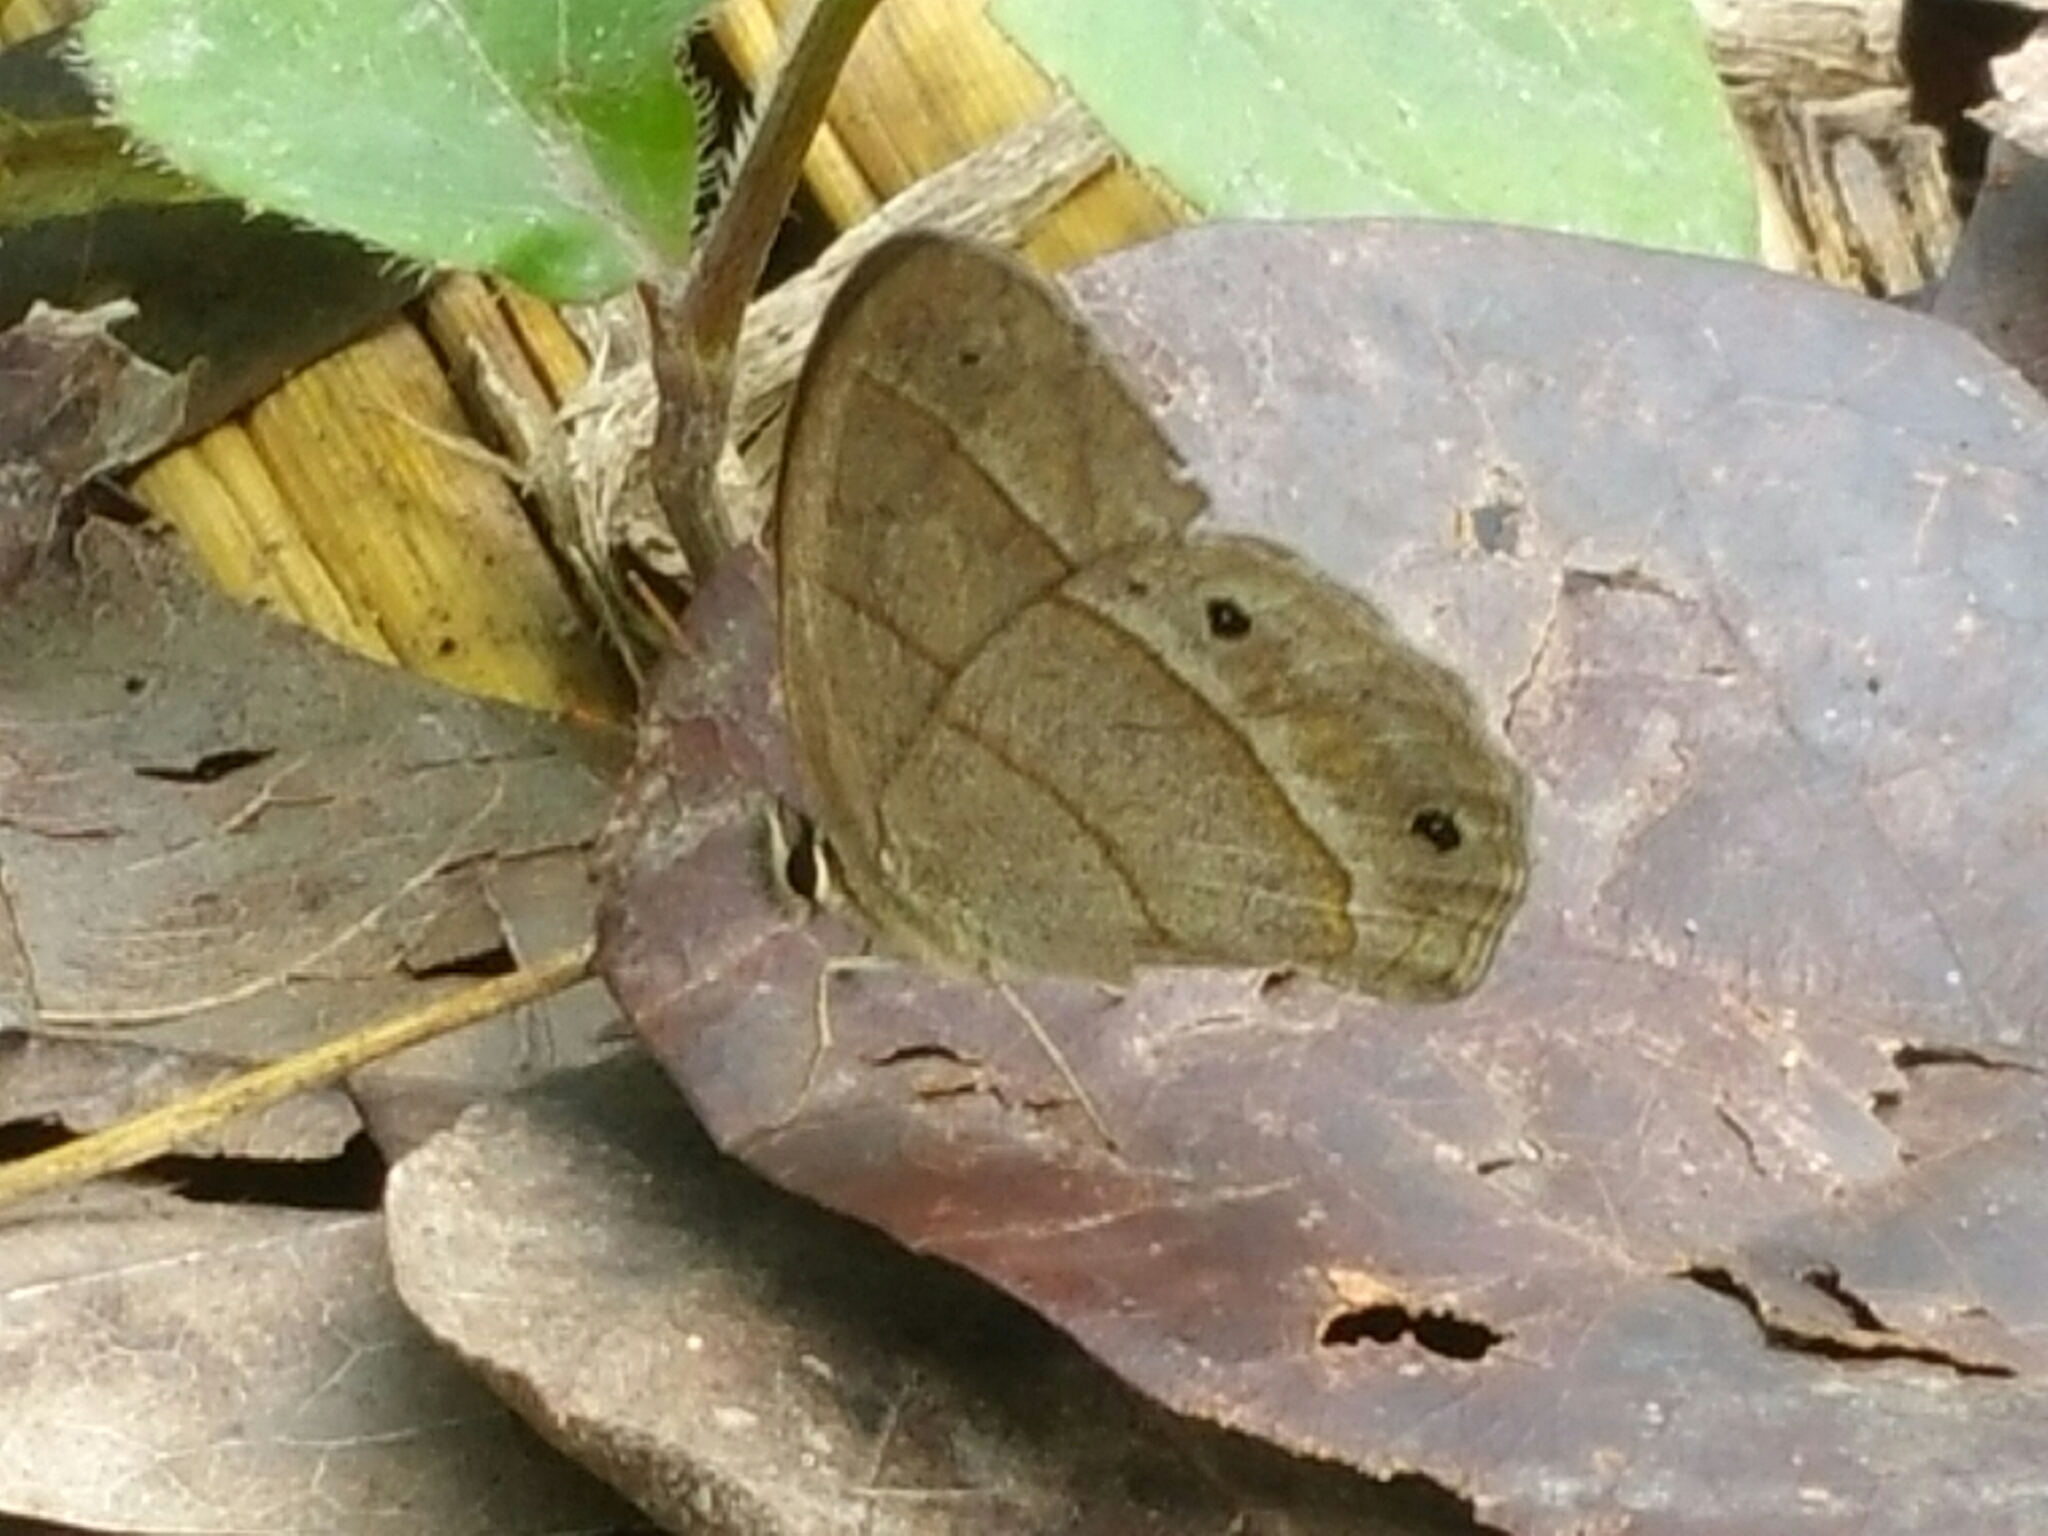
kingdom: Animalia
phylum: Arthropoda
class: Insecta
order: Lepidoptera
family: Nymphalidae
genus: Euptychia
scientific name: Euptychia Cissia pompilia
